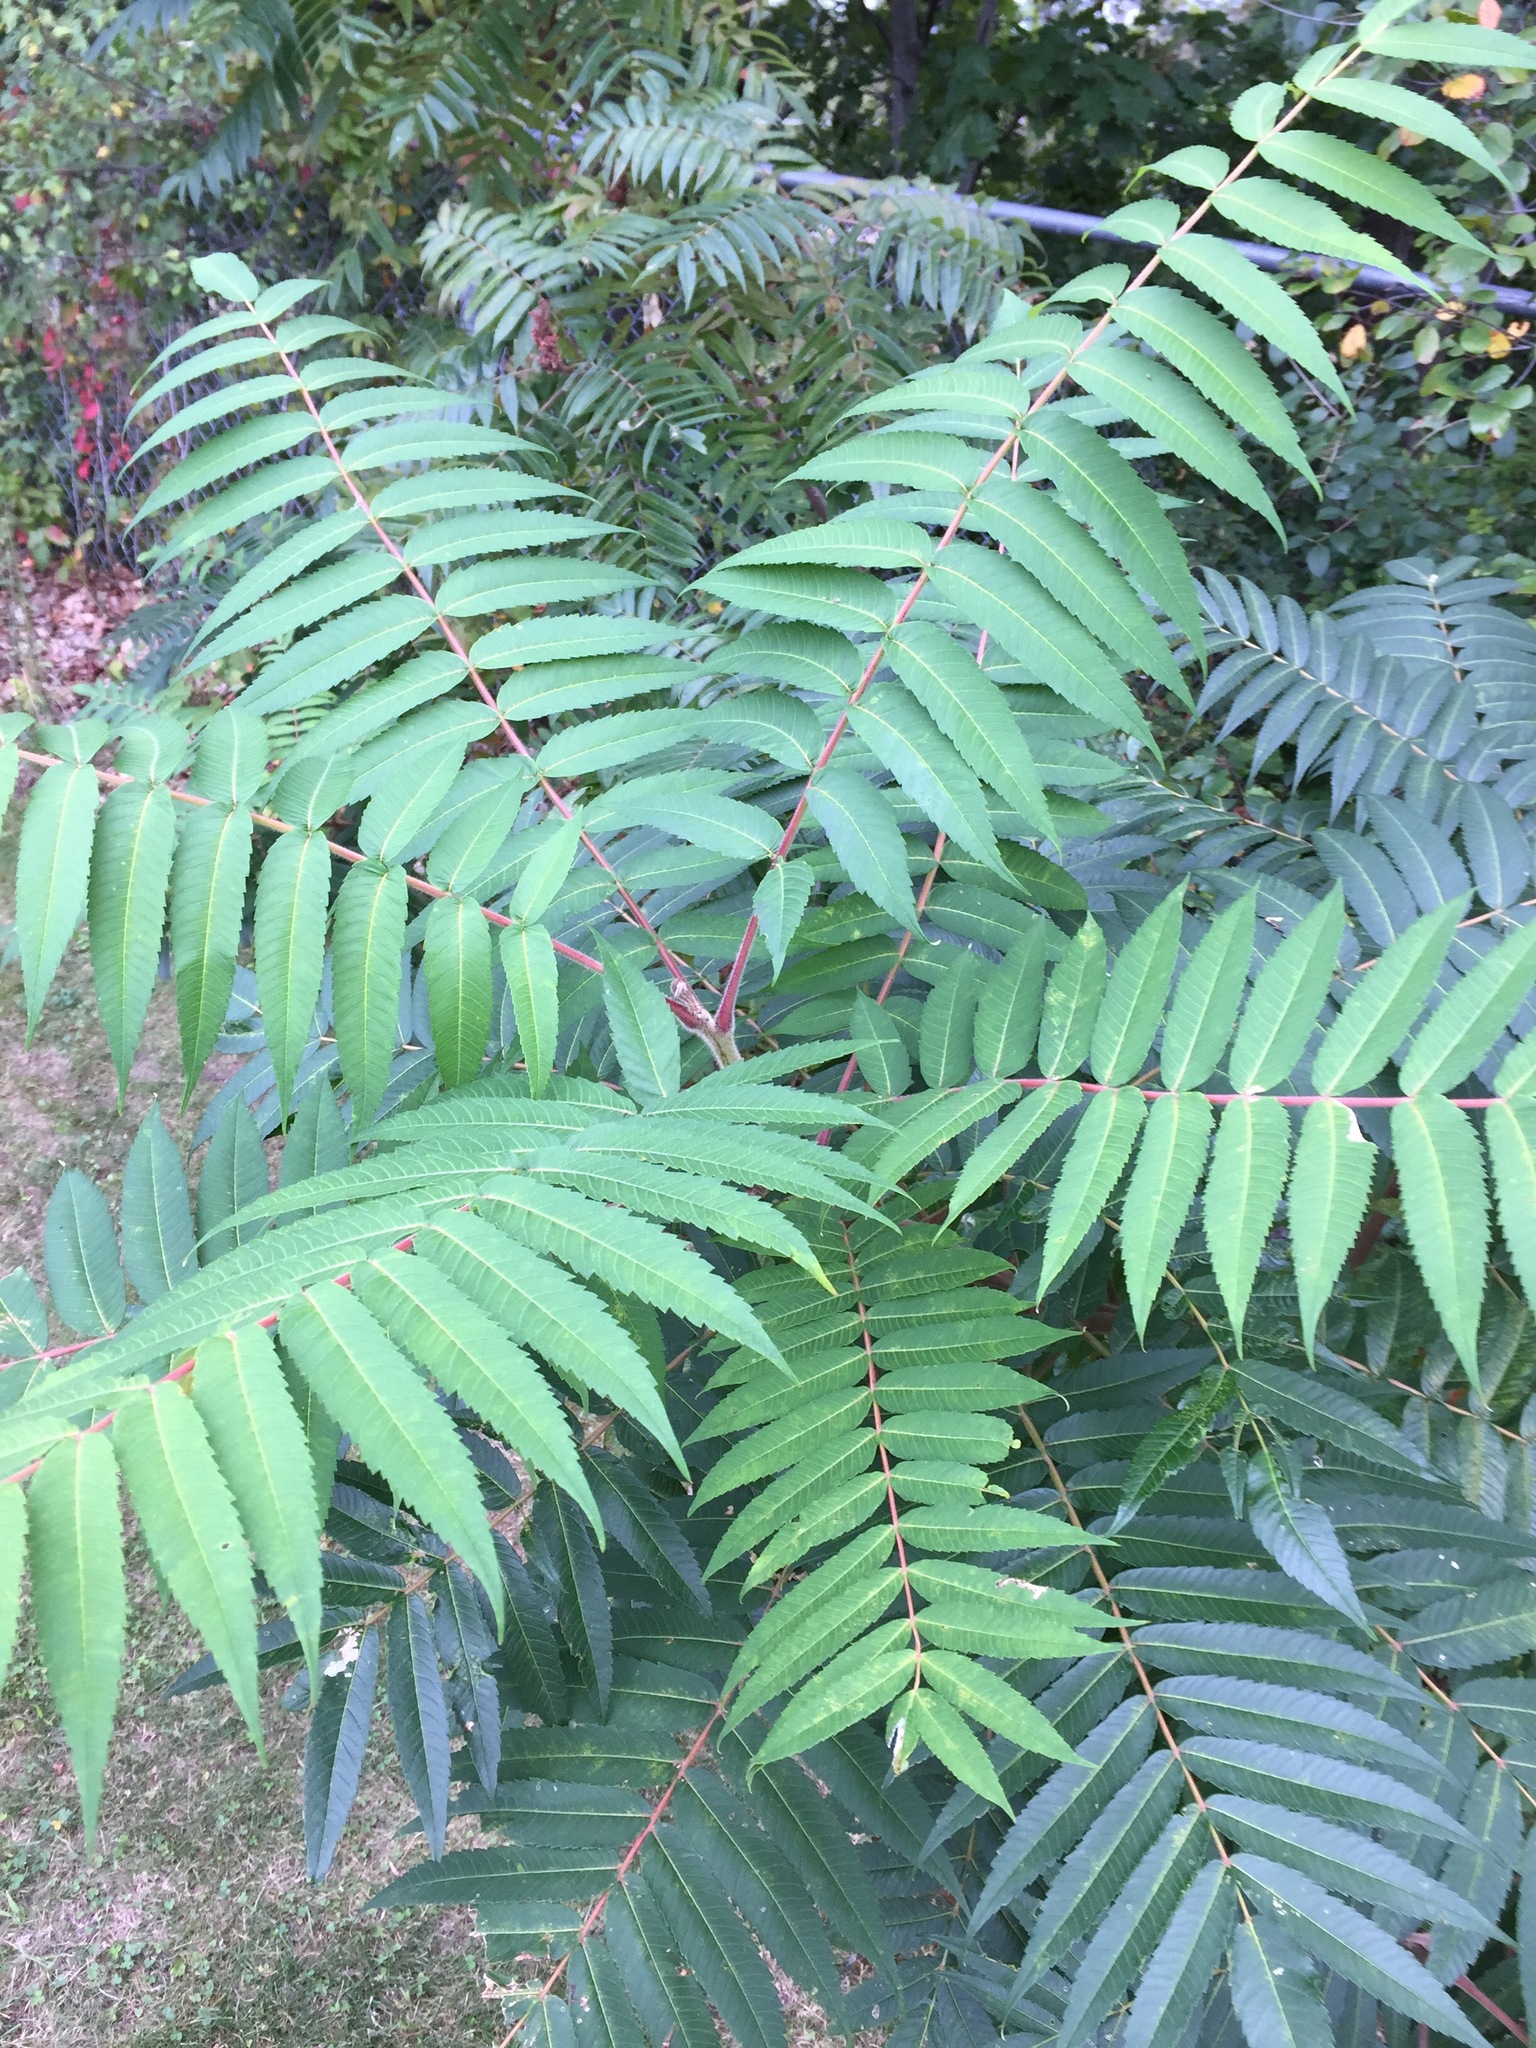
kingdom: Plantae
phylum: Tracheophyta
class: Magnoliopsida
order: Sapindales
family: Anacardiaceae
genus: Rhus
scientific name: Rhus typhina
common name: Staghorn sumac
